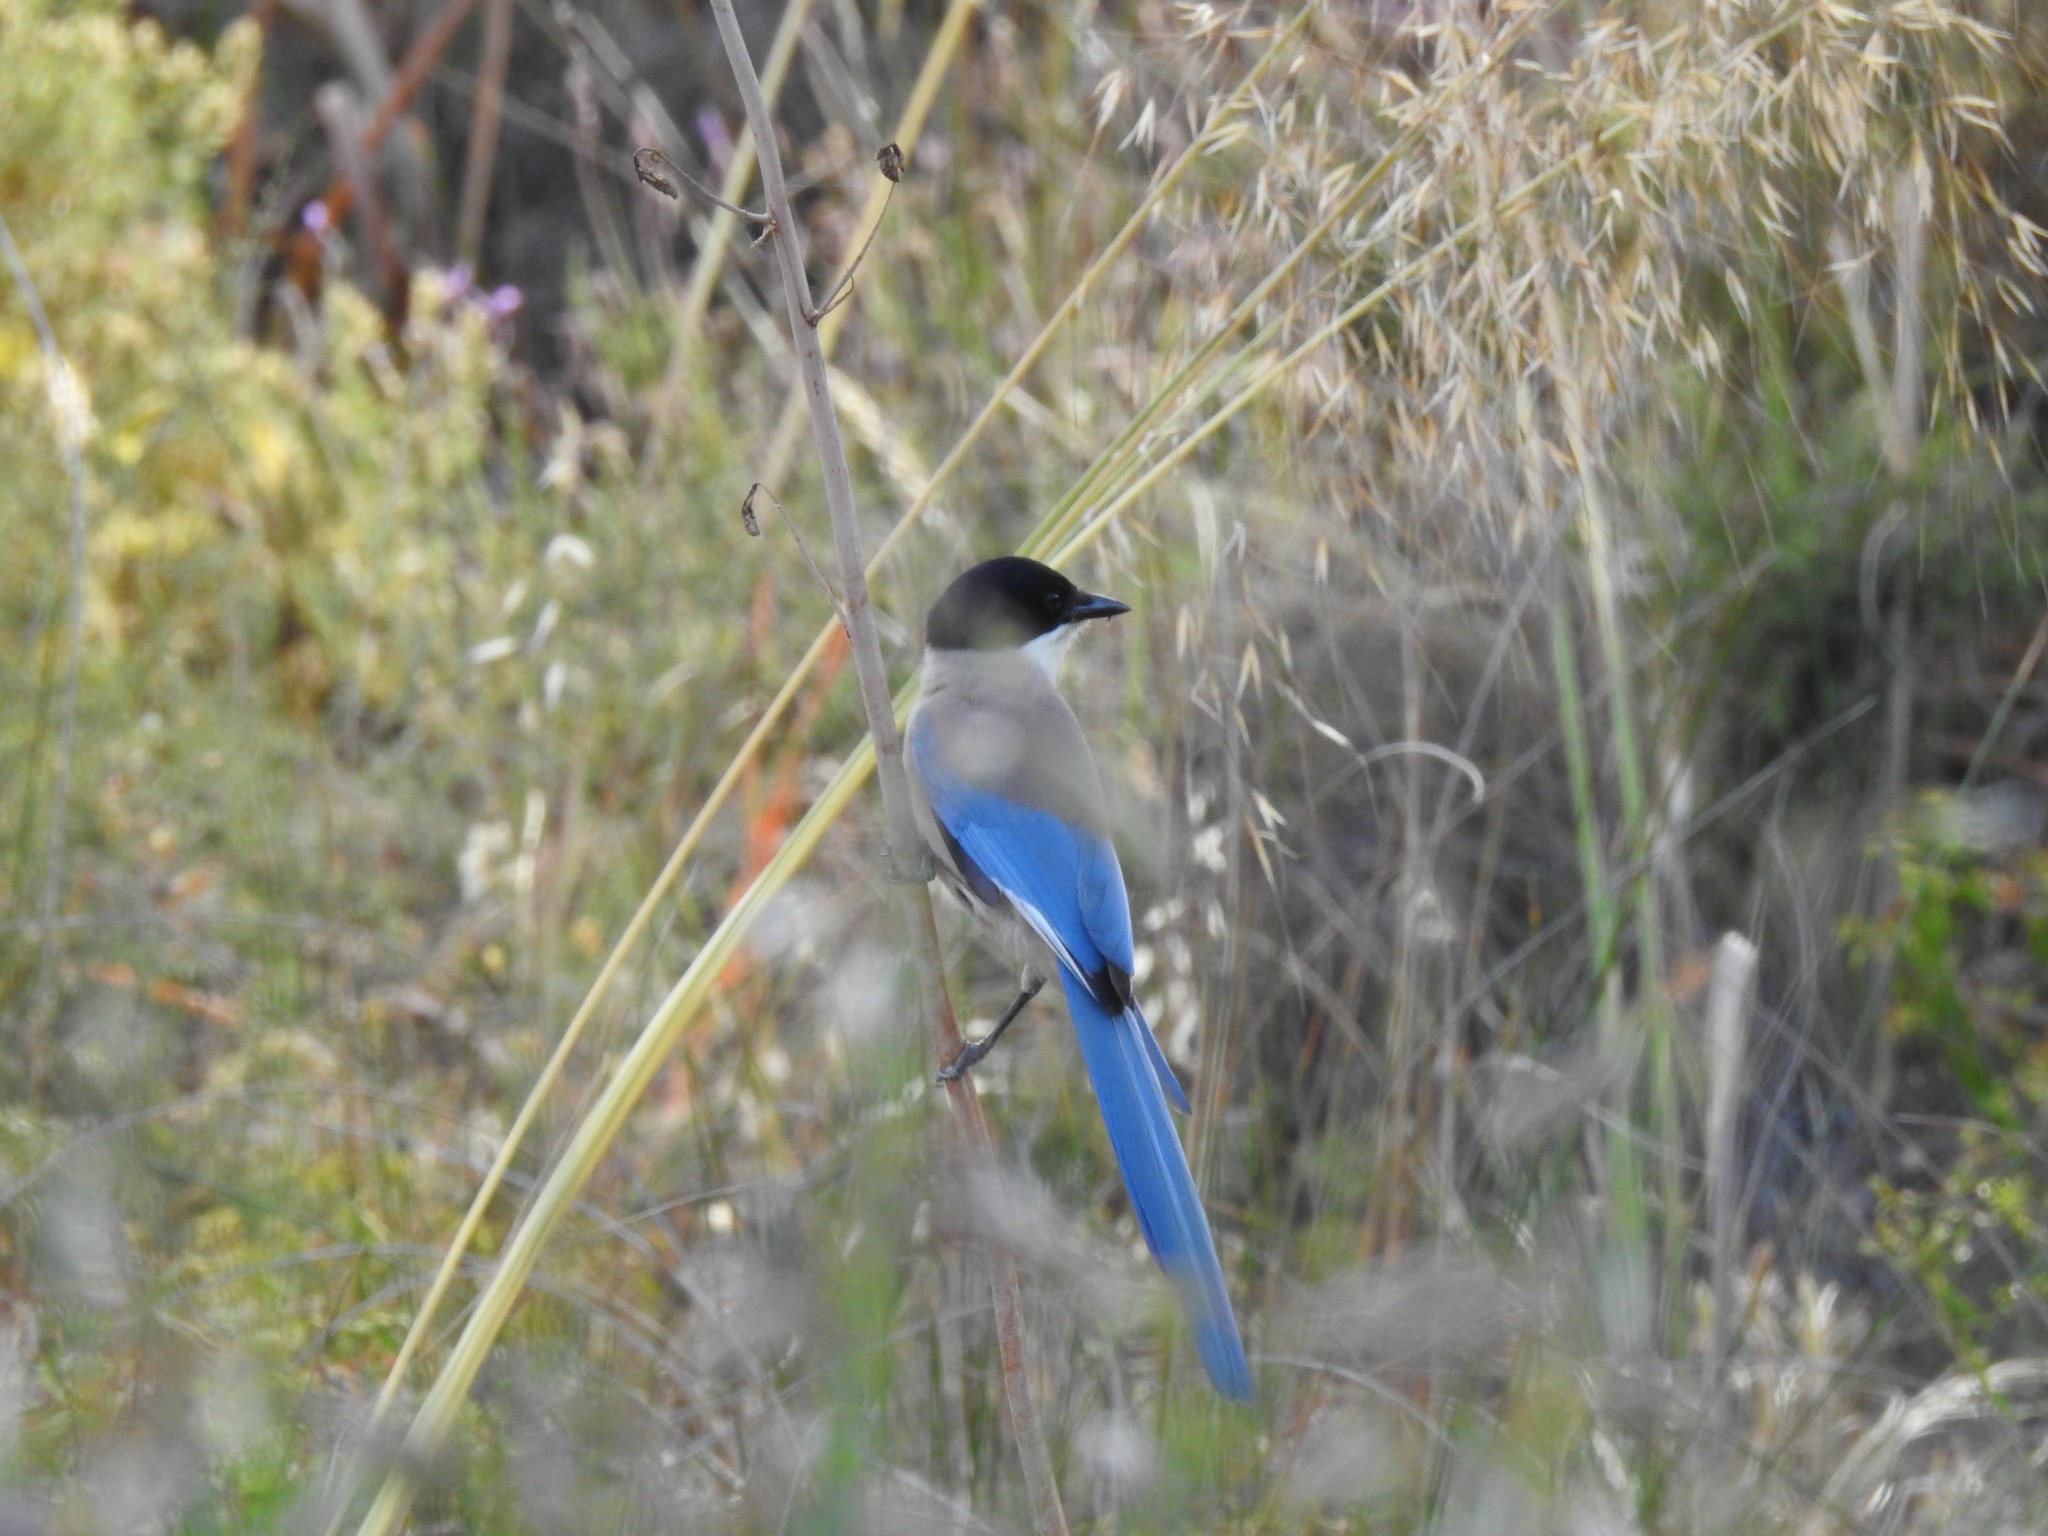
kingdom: Animalia
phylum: Chordata
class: Aves
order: Passeriformes
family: Corvidae
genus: Cyanopica
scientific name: Cyanopica cooki
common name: Iberian magpie
